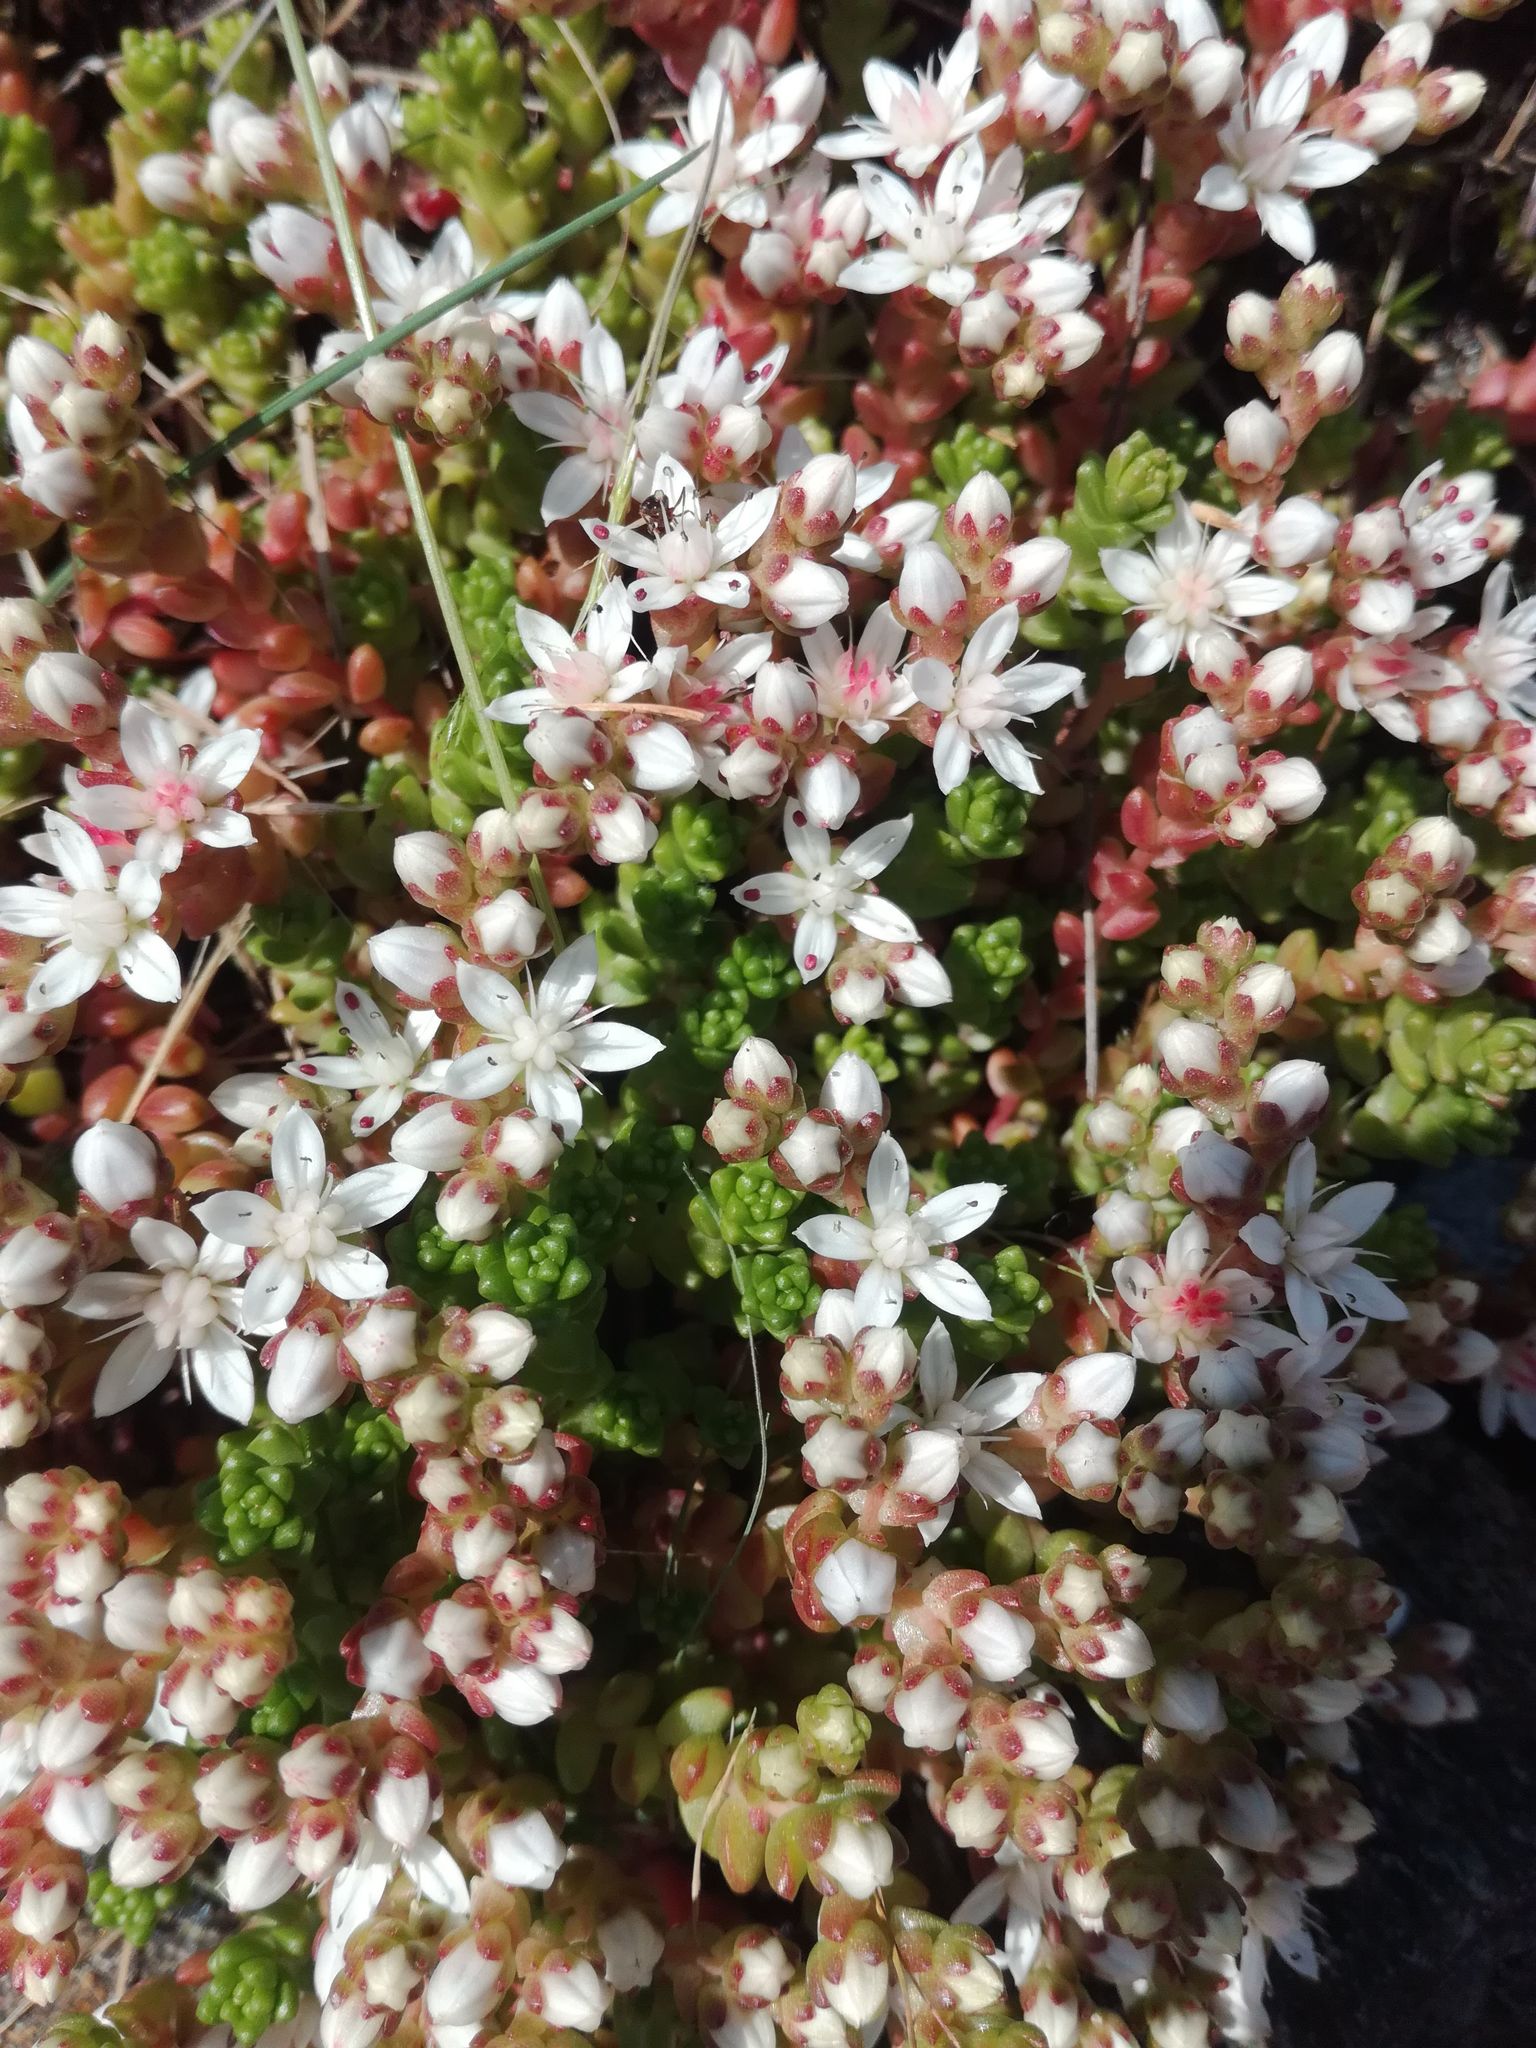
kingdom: Plantae
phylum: Tracheophyta
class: Magnoliopsida
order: Saxifragales
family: Crassulaceae
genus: Sedum
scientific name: Sedum anglicum
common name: English stonecrop
